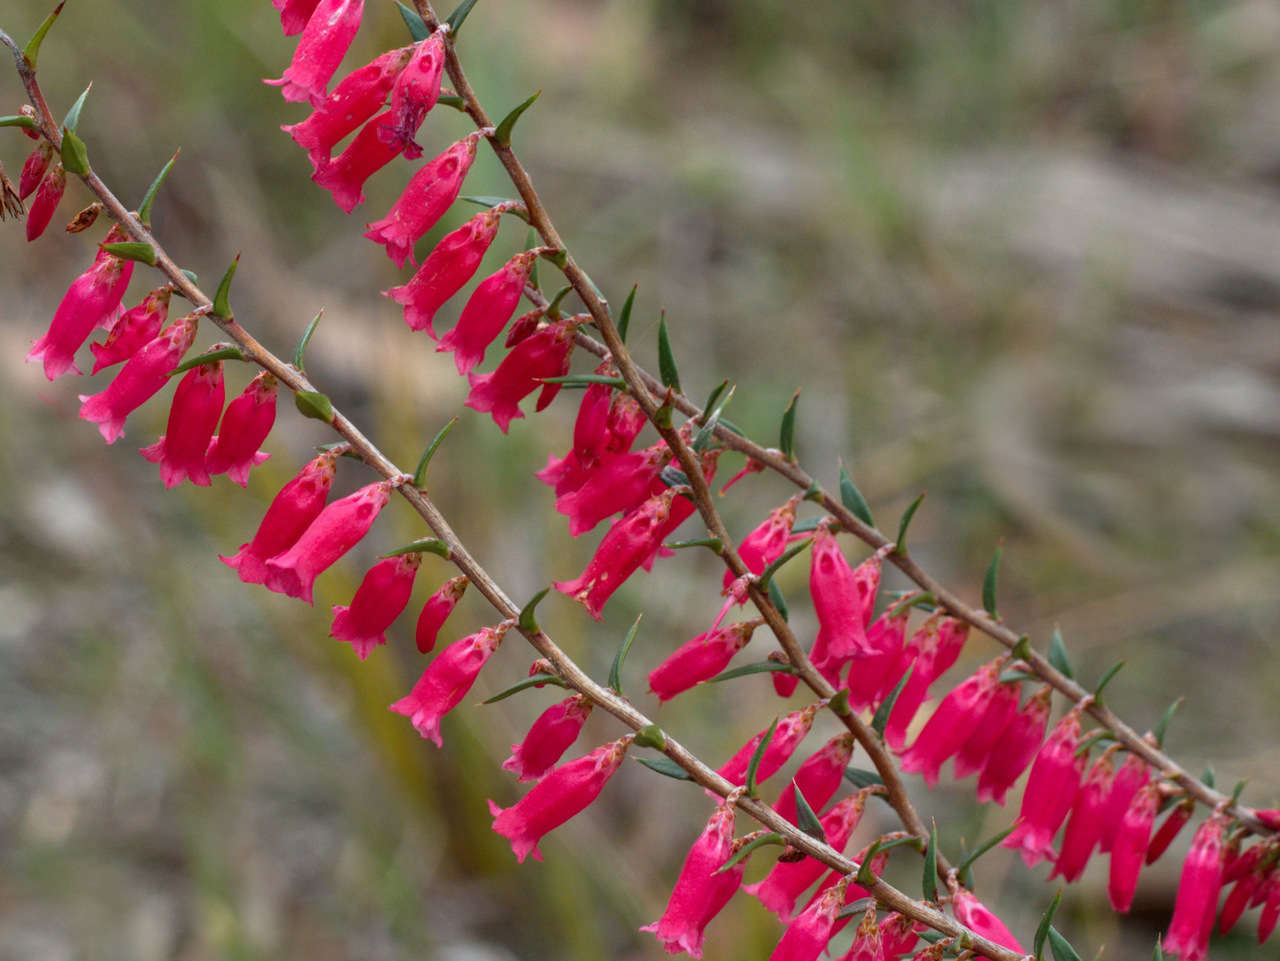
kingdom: Plantae
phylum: Tracheophyta
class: Magnoliopsida
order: Ericales
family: Ericaceae
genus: Epacris
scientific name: Epacris impressa
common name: Common-heath
